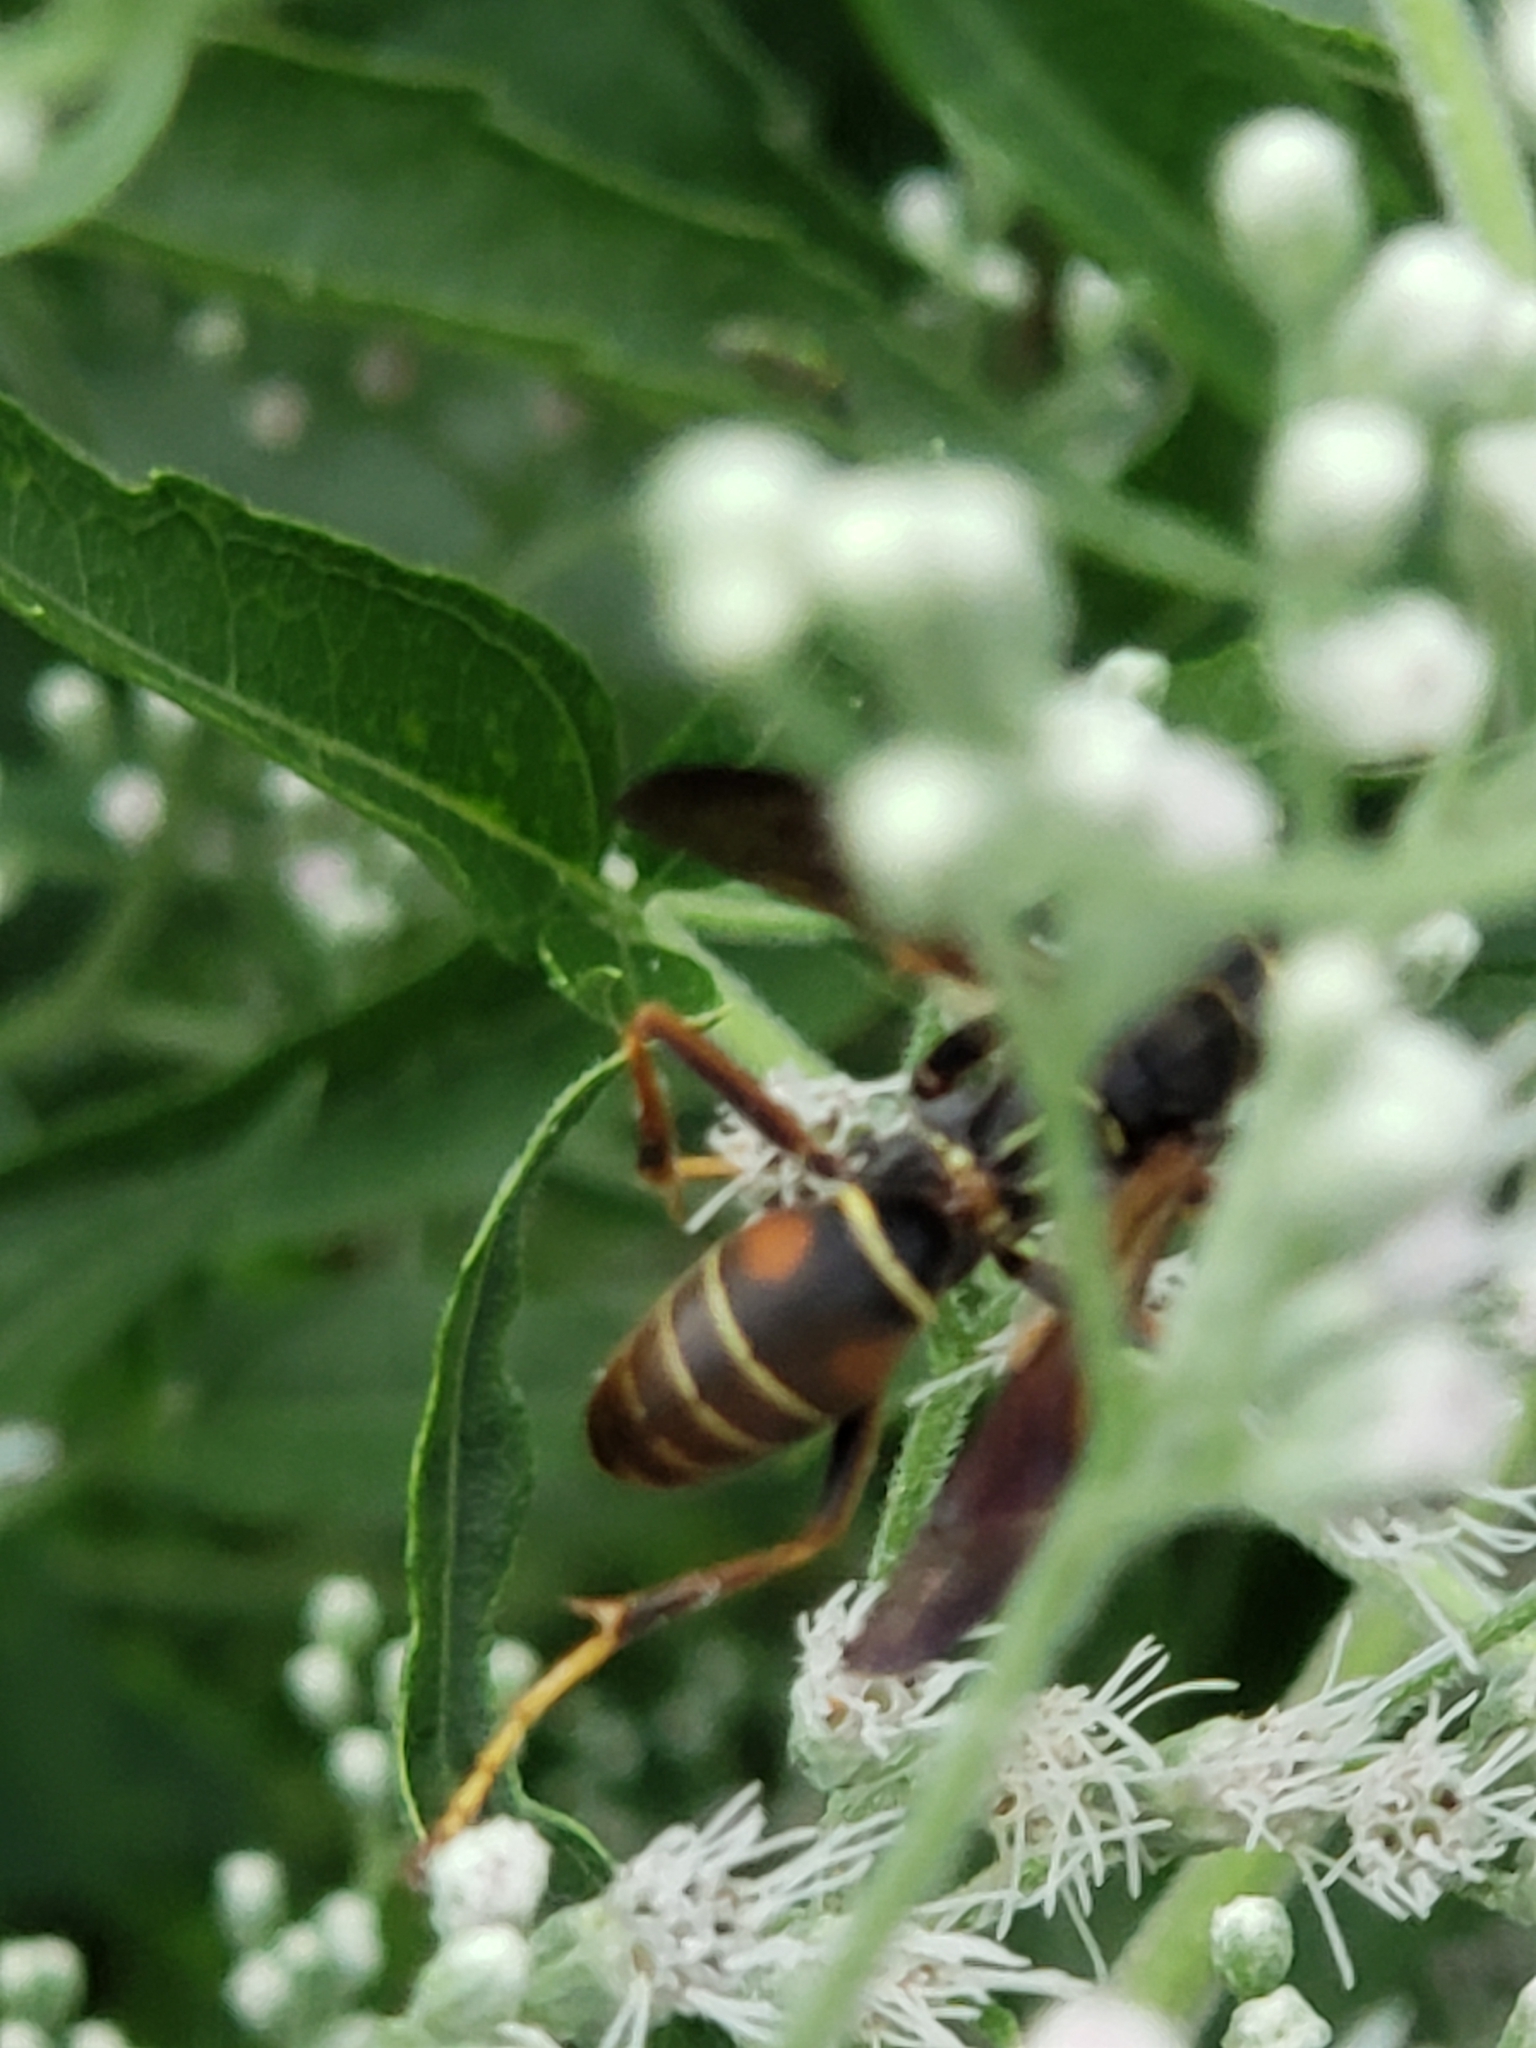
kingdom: Animalia
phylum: Arthropoda
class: Insecta
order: Hymenoptera
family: Eumenidae
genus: Polistes
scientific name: Polistes fuscatus
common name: Dark paper wasp
